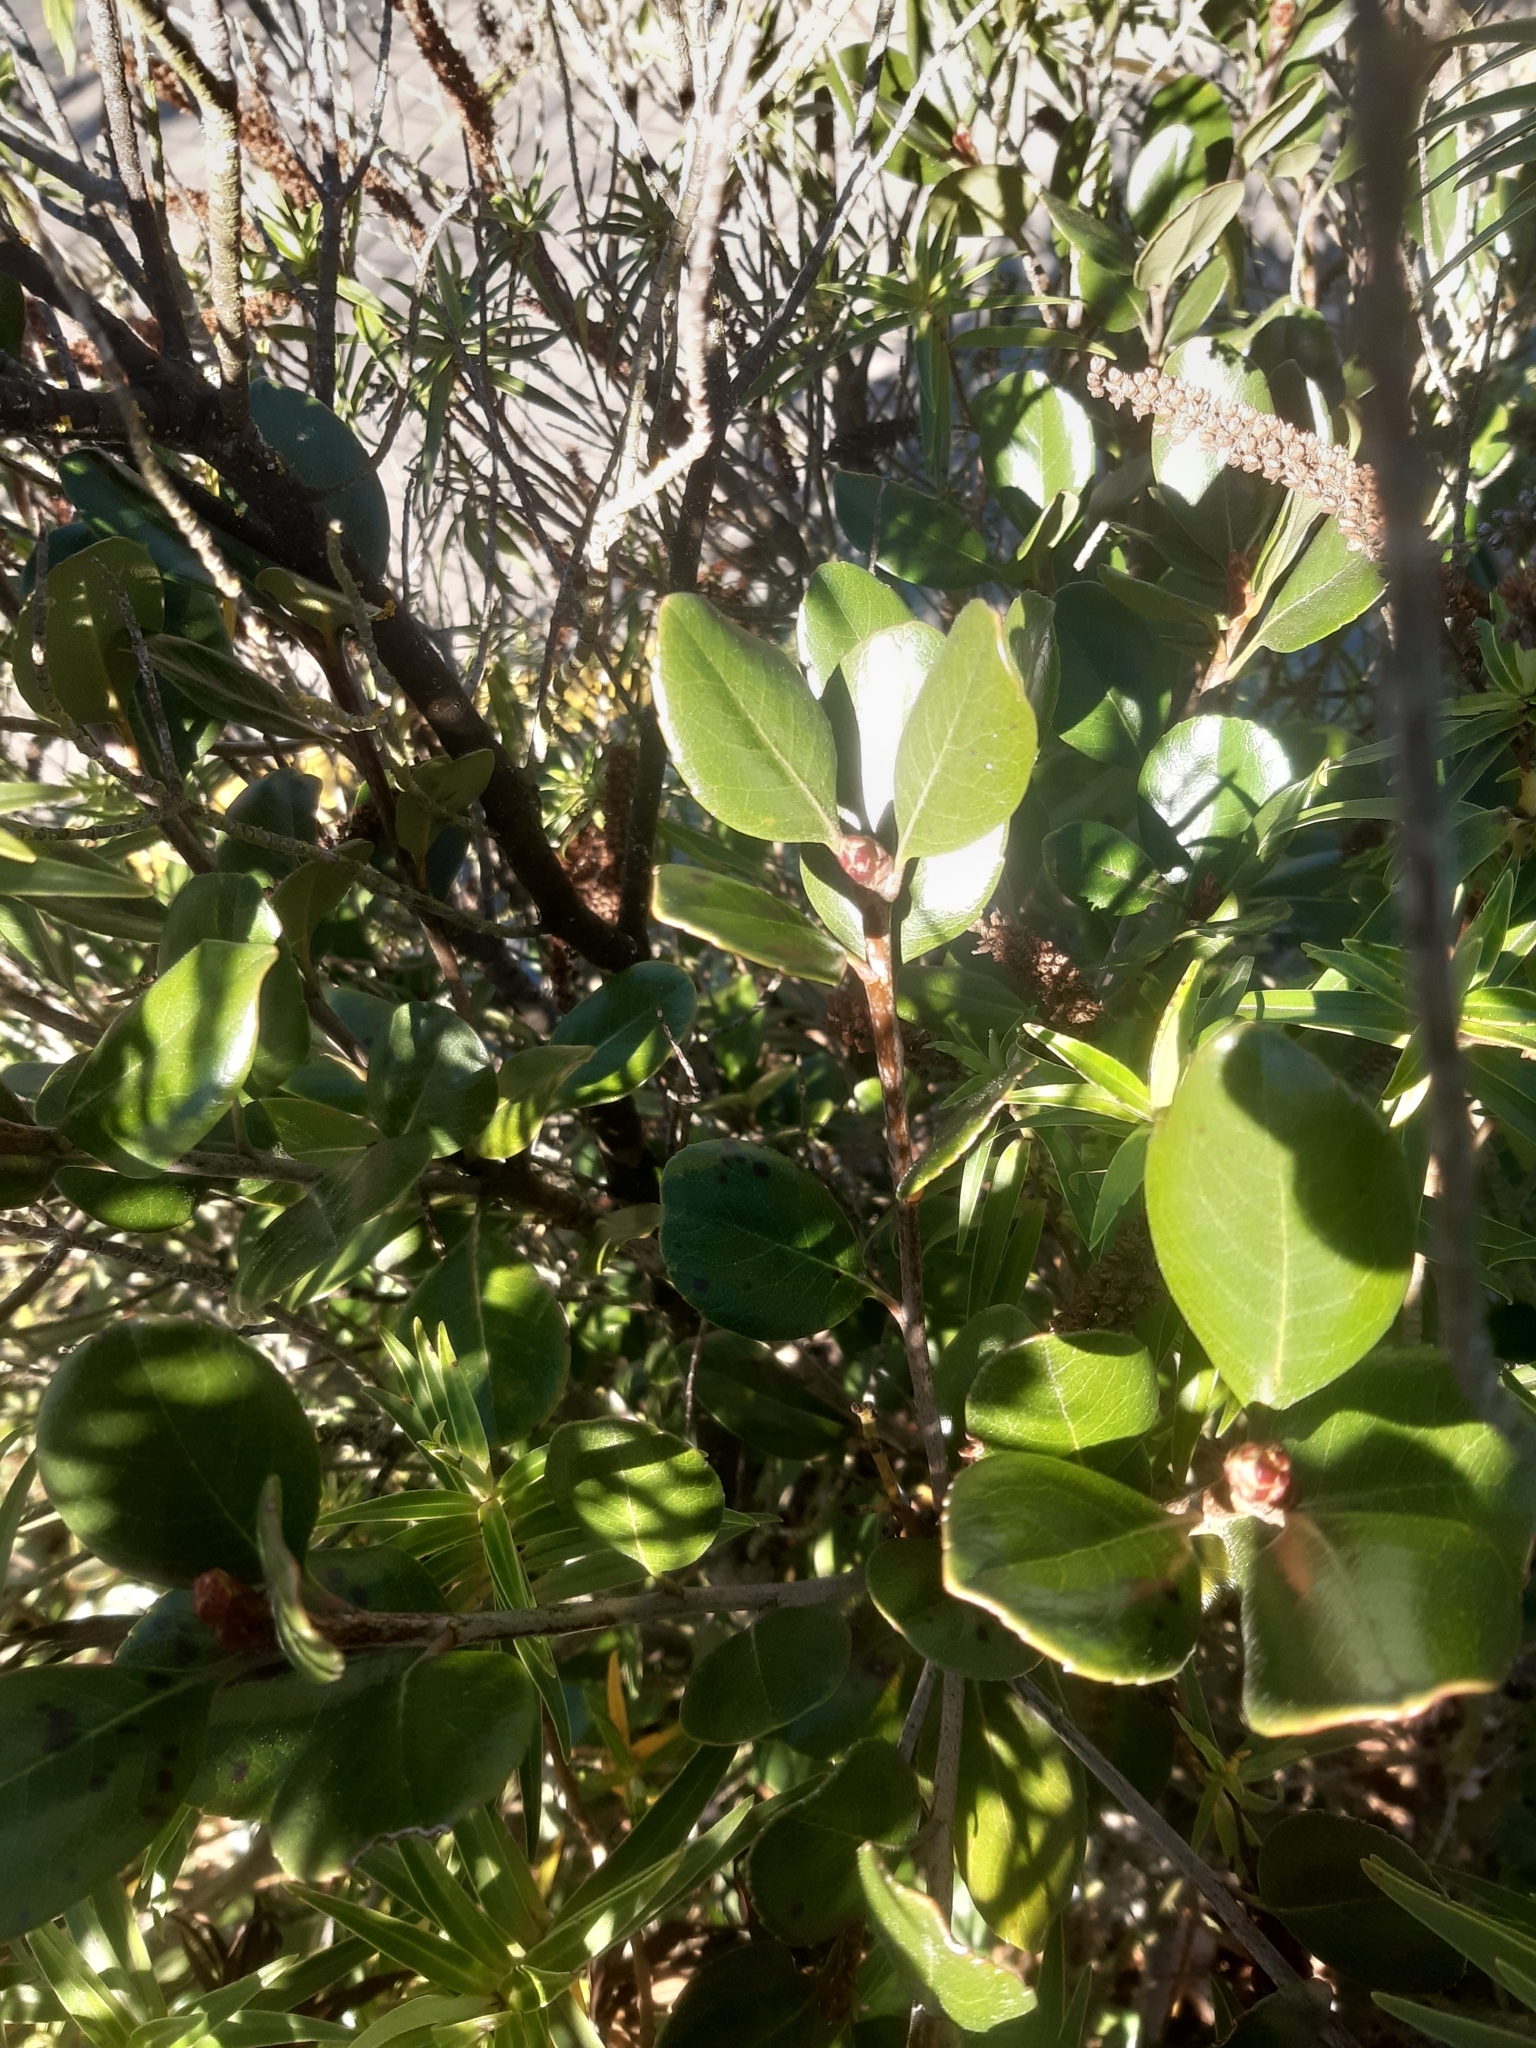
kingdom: Plantae
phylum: Tracheophyta
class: Magnoliopsida
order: Rosales
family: Rosaceae
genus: Rhaphiolepis
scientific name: Rhaphiolepis umbellata
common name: Yedda-hawthorn
